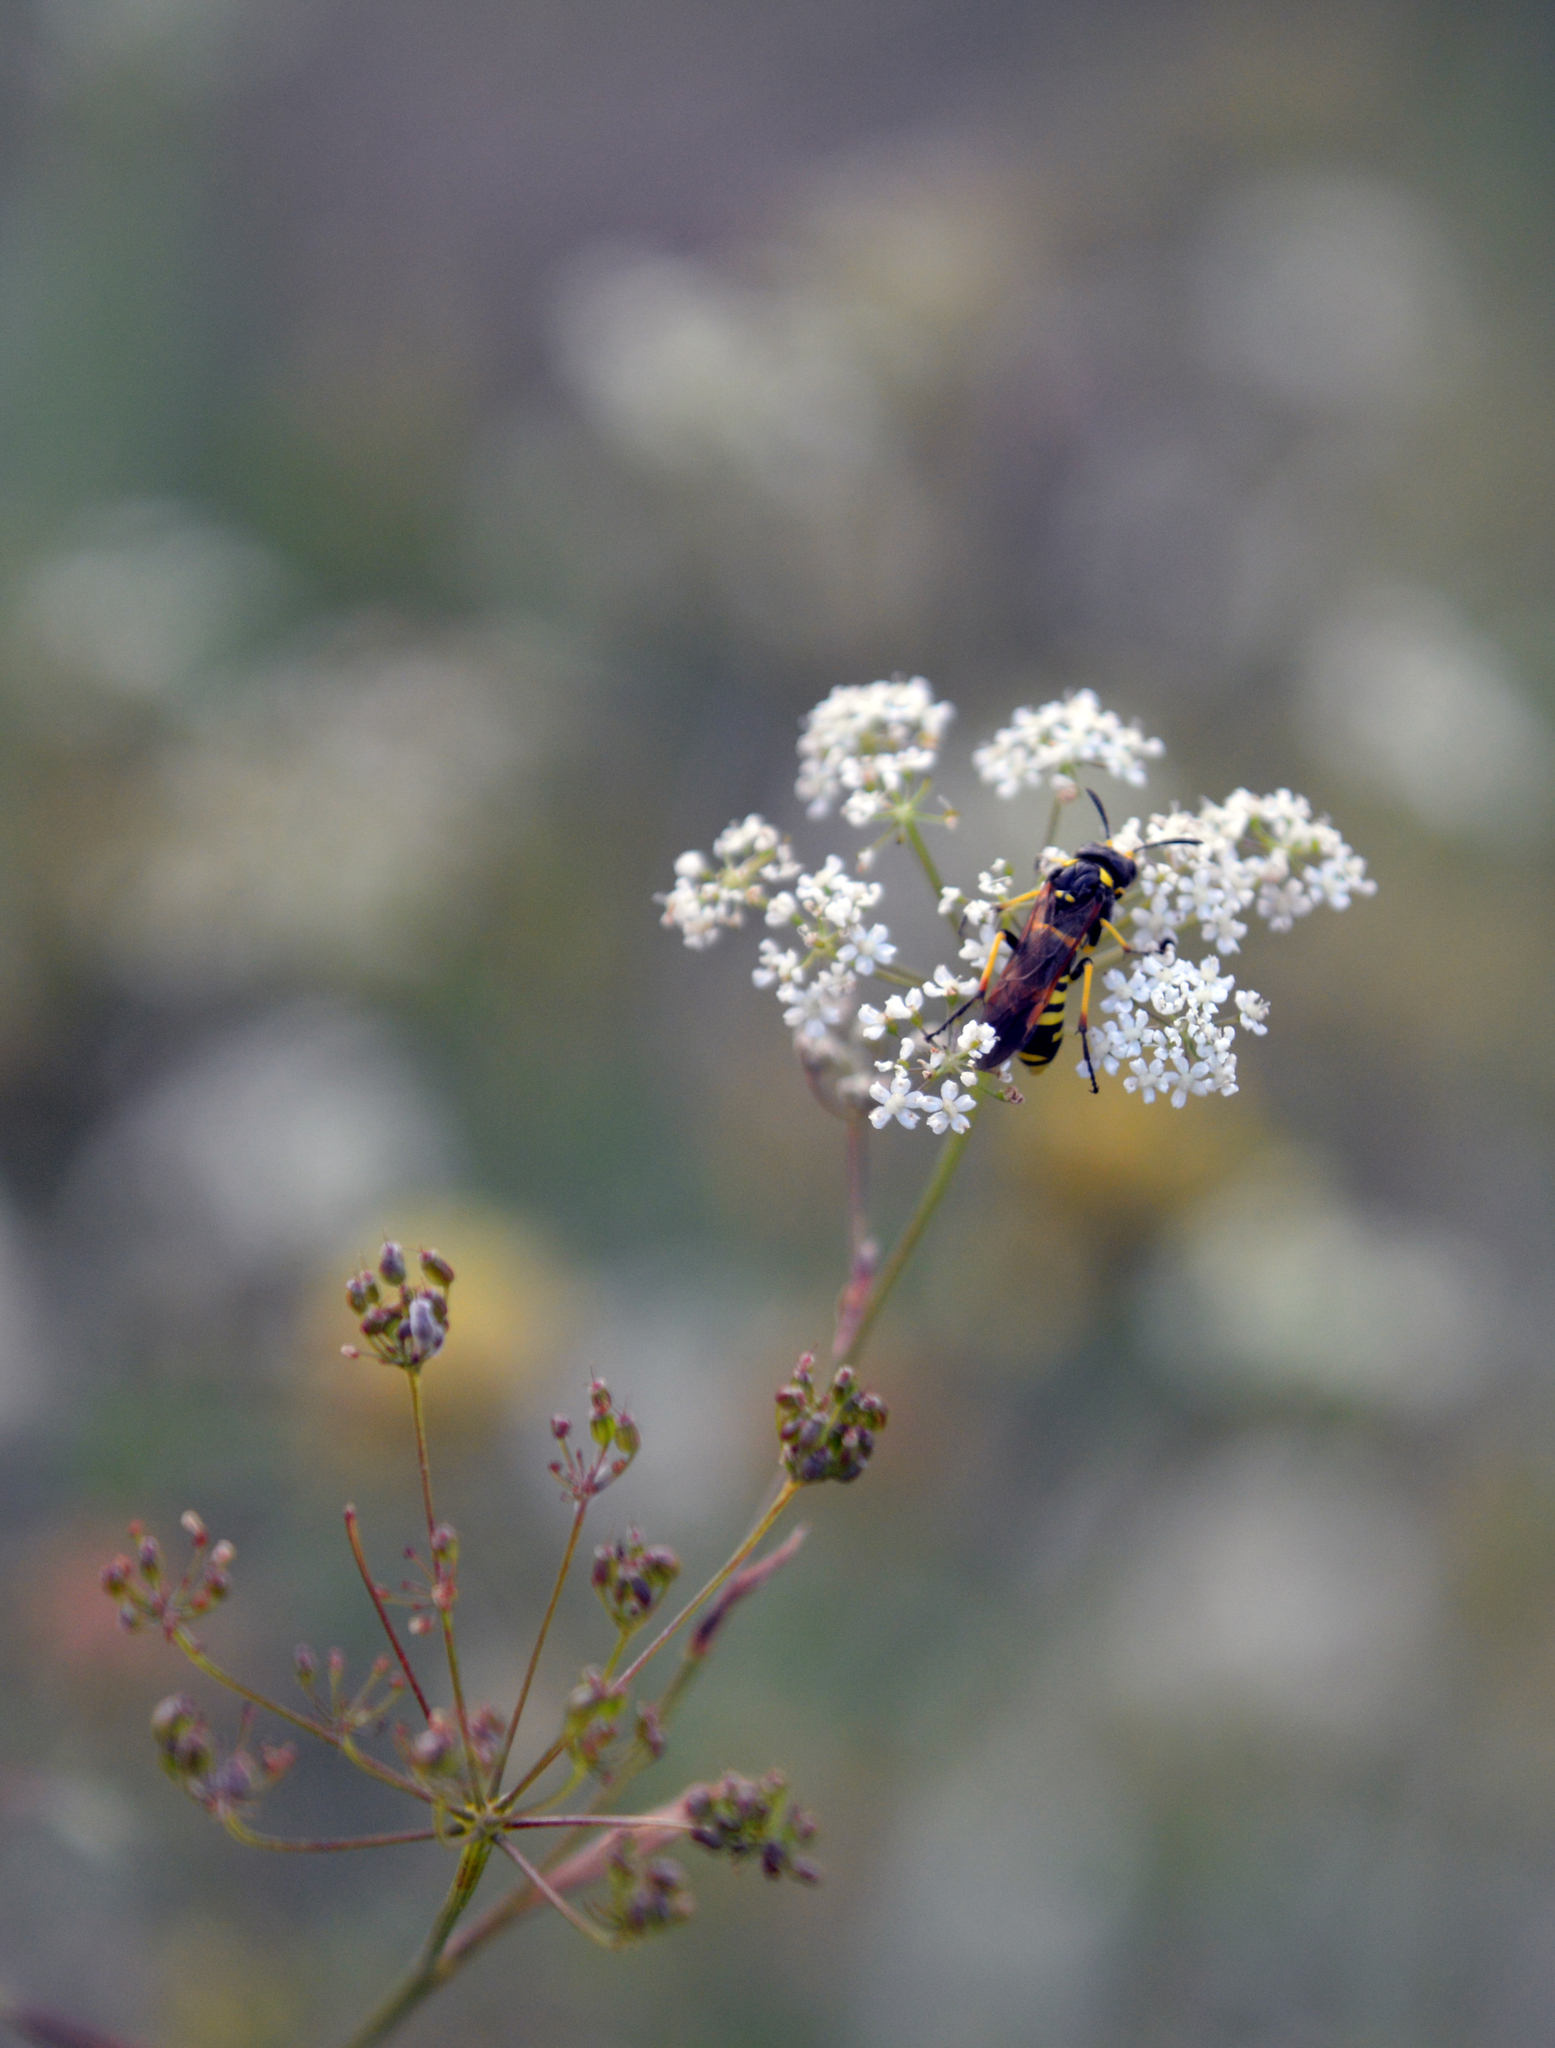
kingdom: Animalia
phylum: Arthropoda
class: Insecta
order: Hymenoptera
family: Tenthredinidae
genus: Tenthredo
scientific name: Tenthredo
